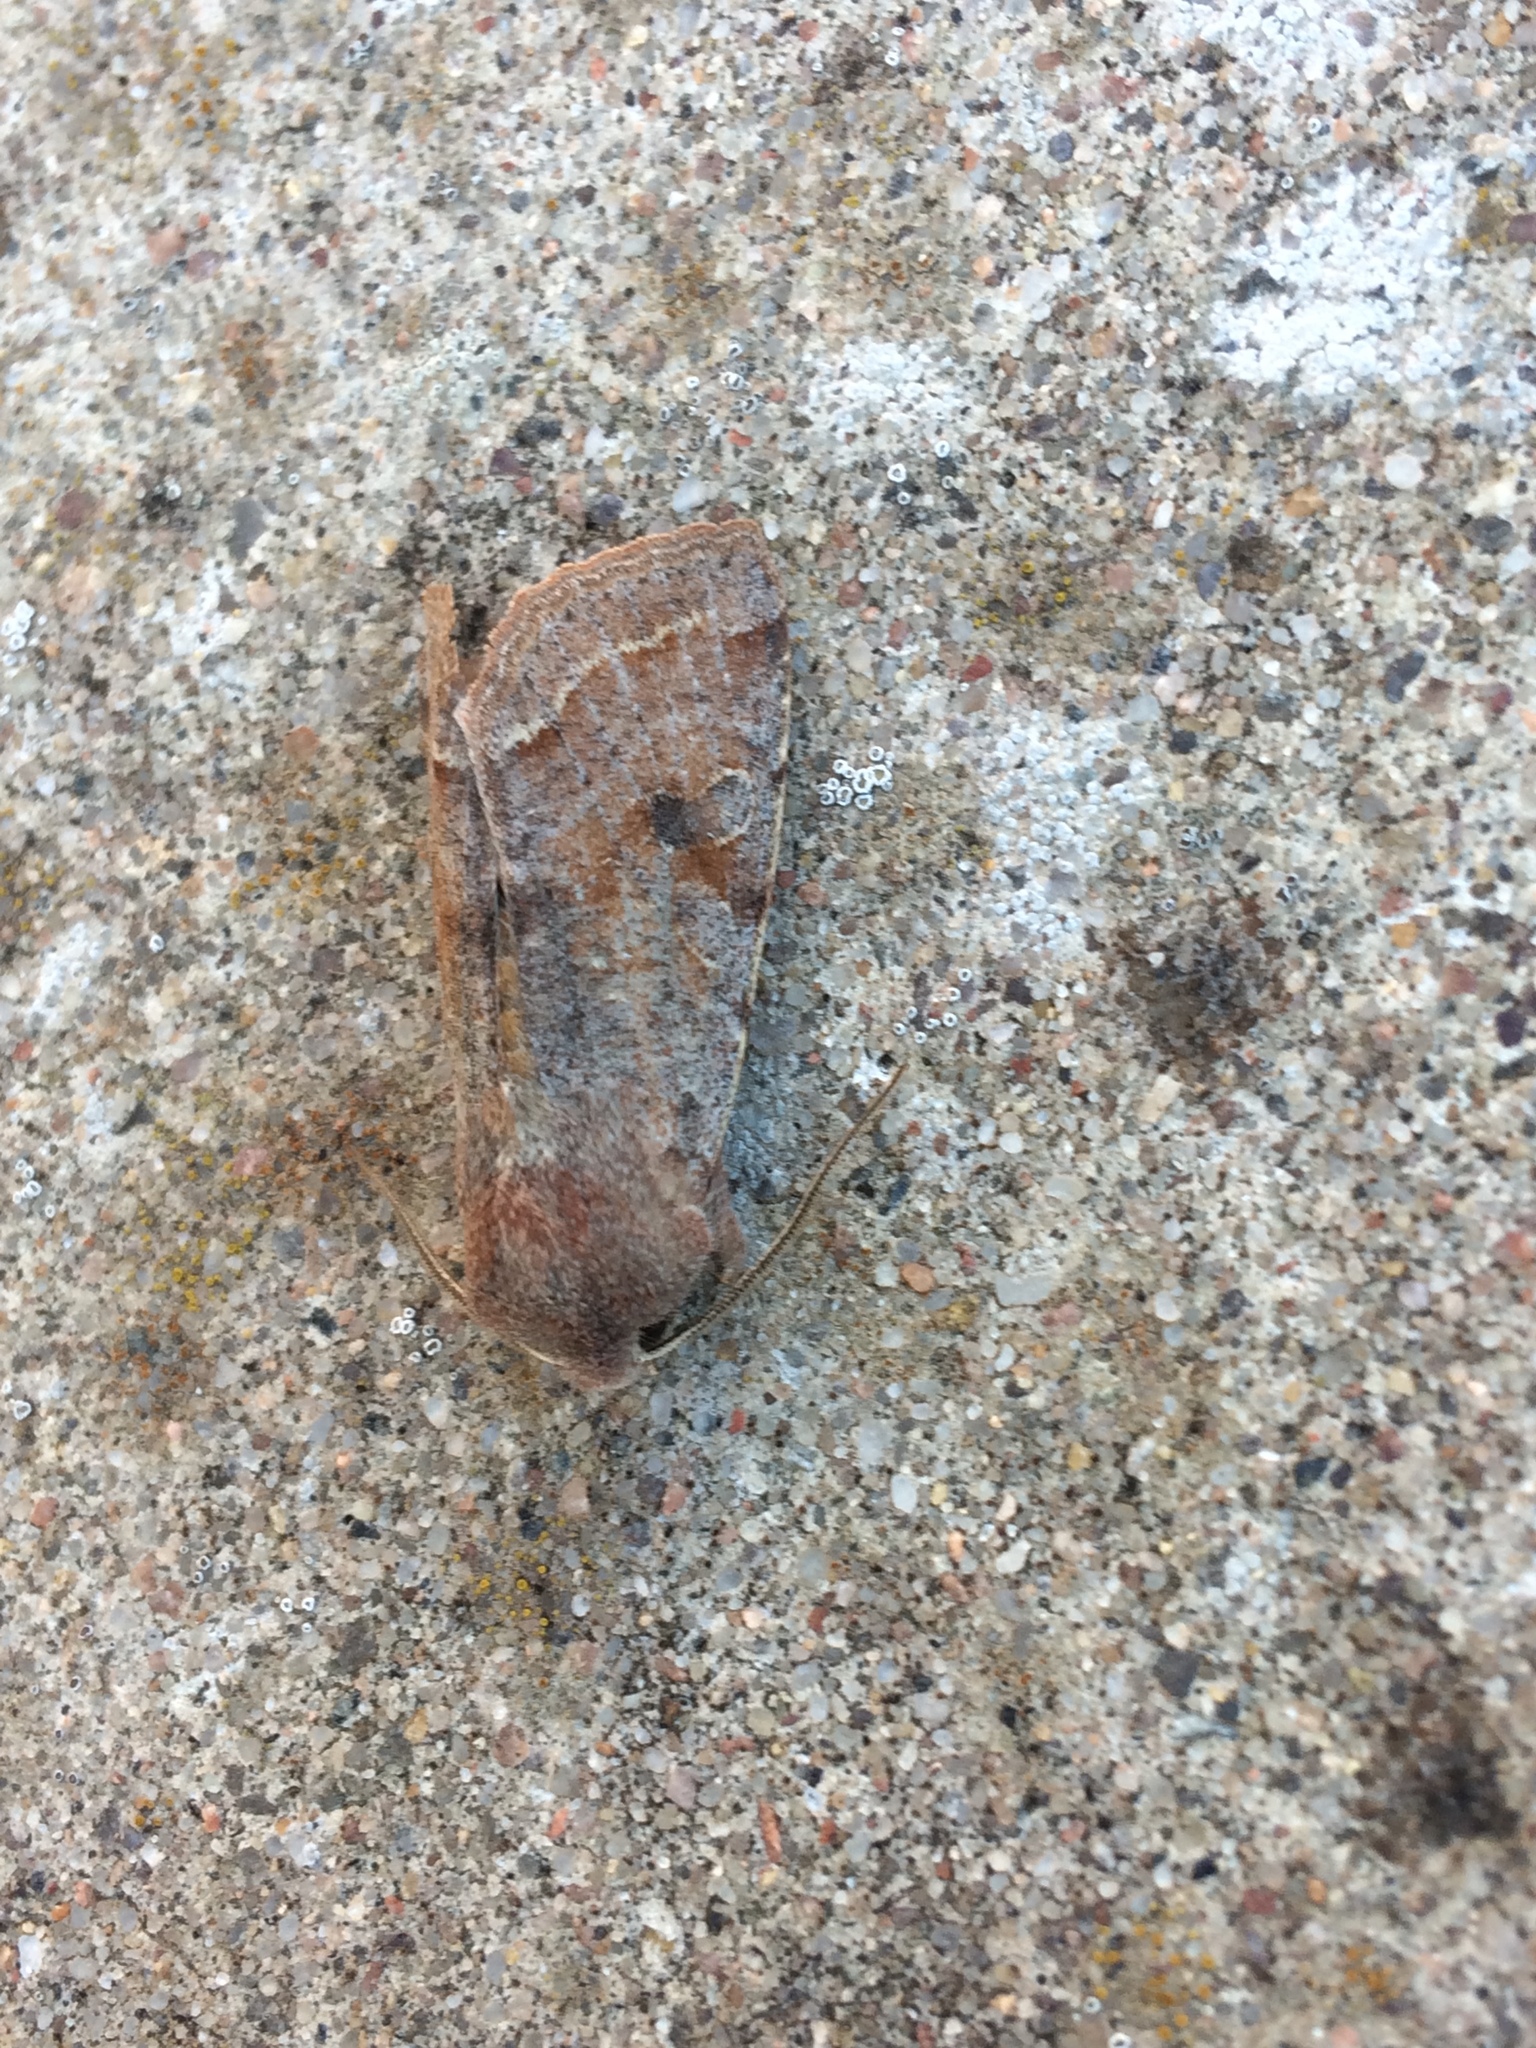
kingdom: Animalia
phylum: Arthropoda
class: Insecta
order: Lepidoptera
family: Noctuidae
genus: Orthosia
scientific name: Orthosia incerta
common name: Clouded drab
